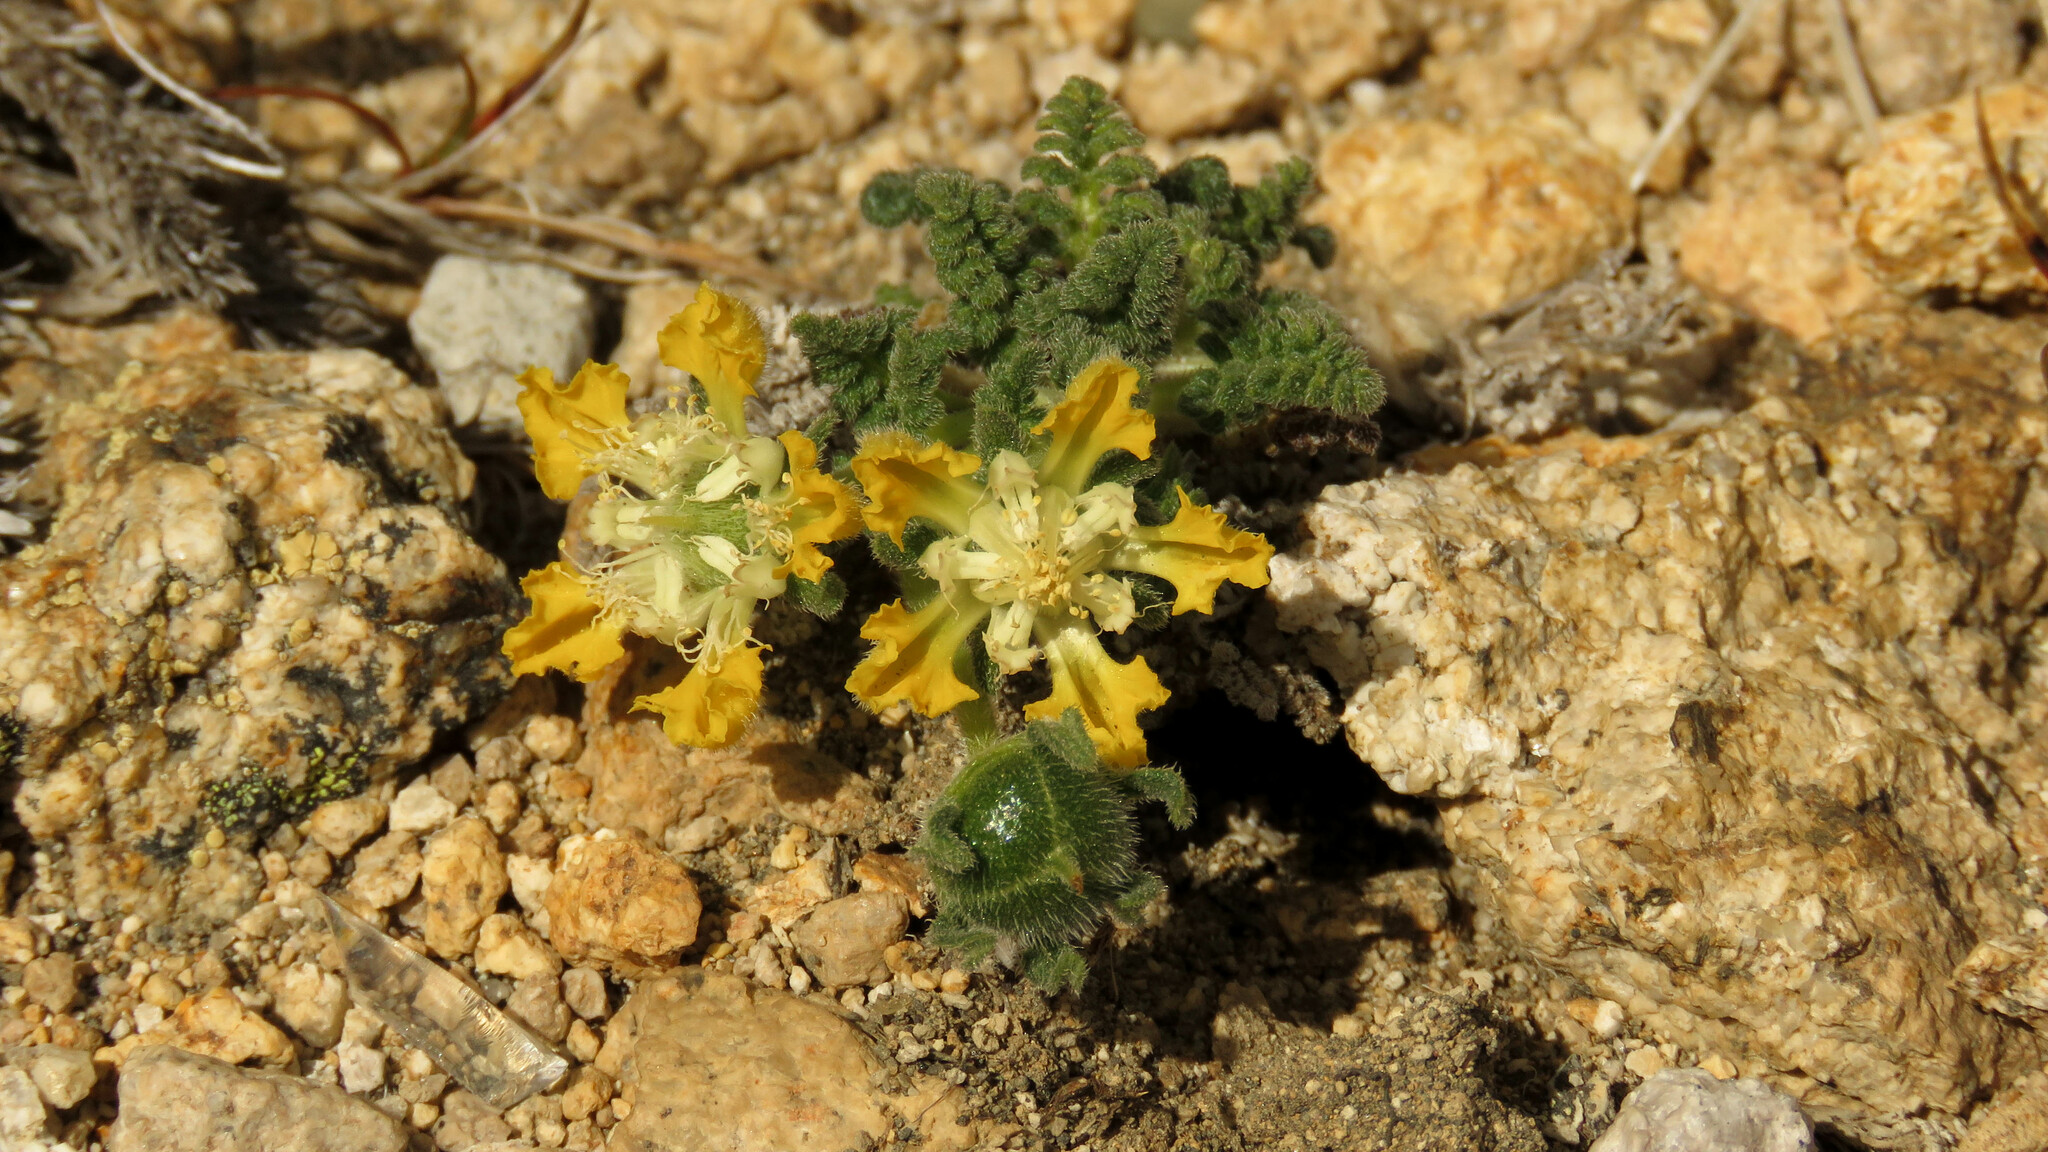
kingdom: Plantae
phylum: Tracheophyta
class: Magnoliopsida
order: Cornales
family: Loasaceae
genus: Pinnasa
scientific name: Pinnasa nana
